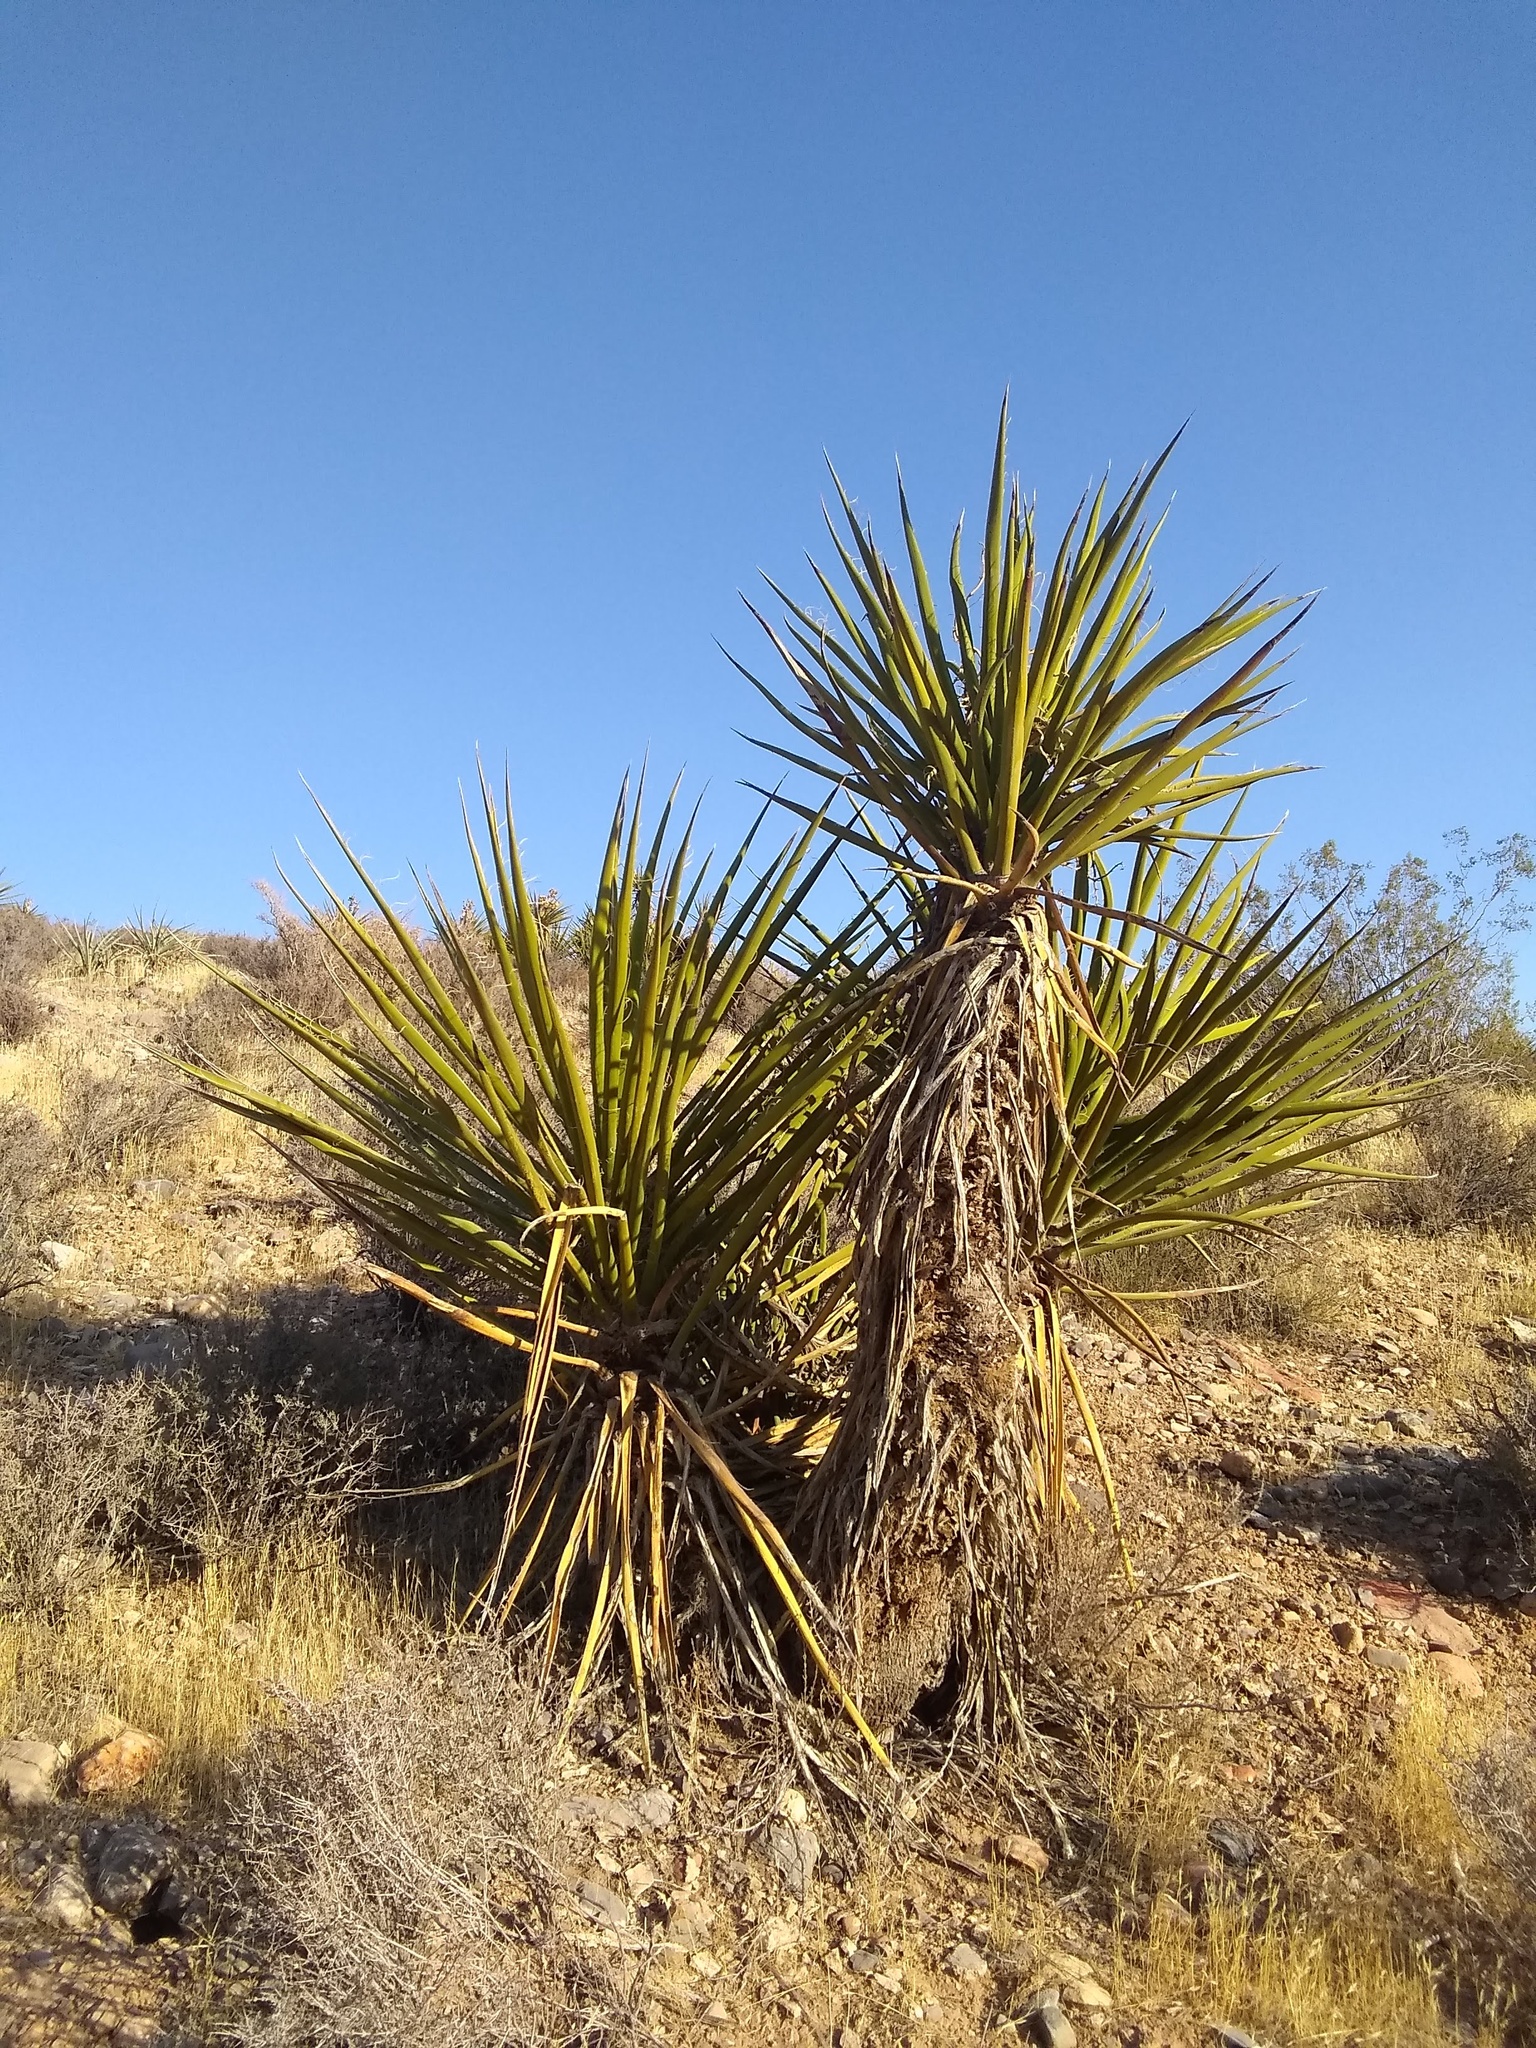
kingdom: Plantae
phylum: Tracheophyta
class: Liliopsida
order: Asparagales
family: Asparagaceae
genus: Yucca
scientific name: Yucca schidigera
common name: Mojave yucca
